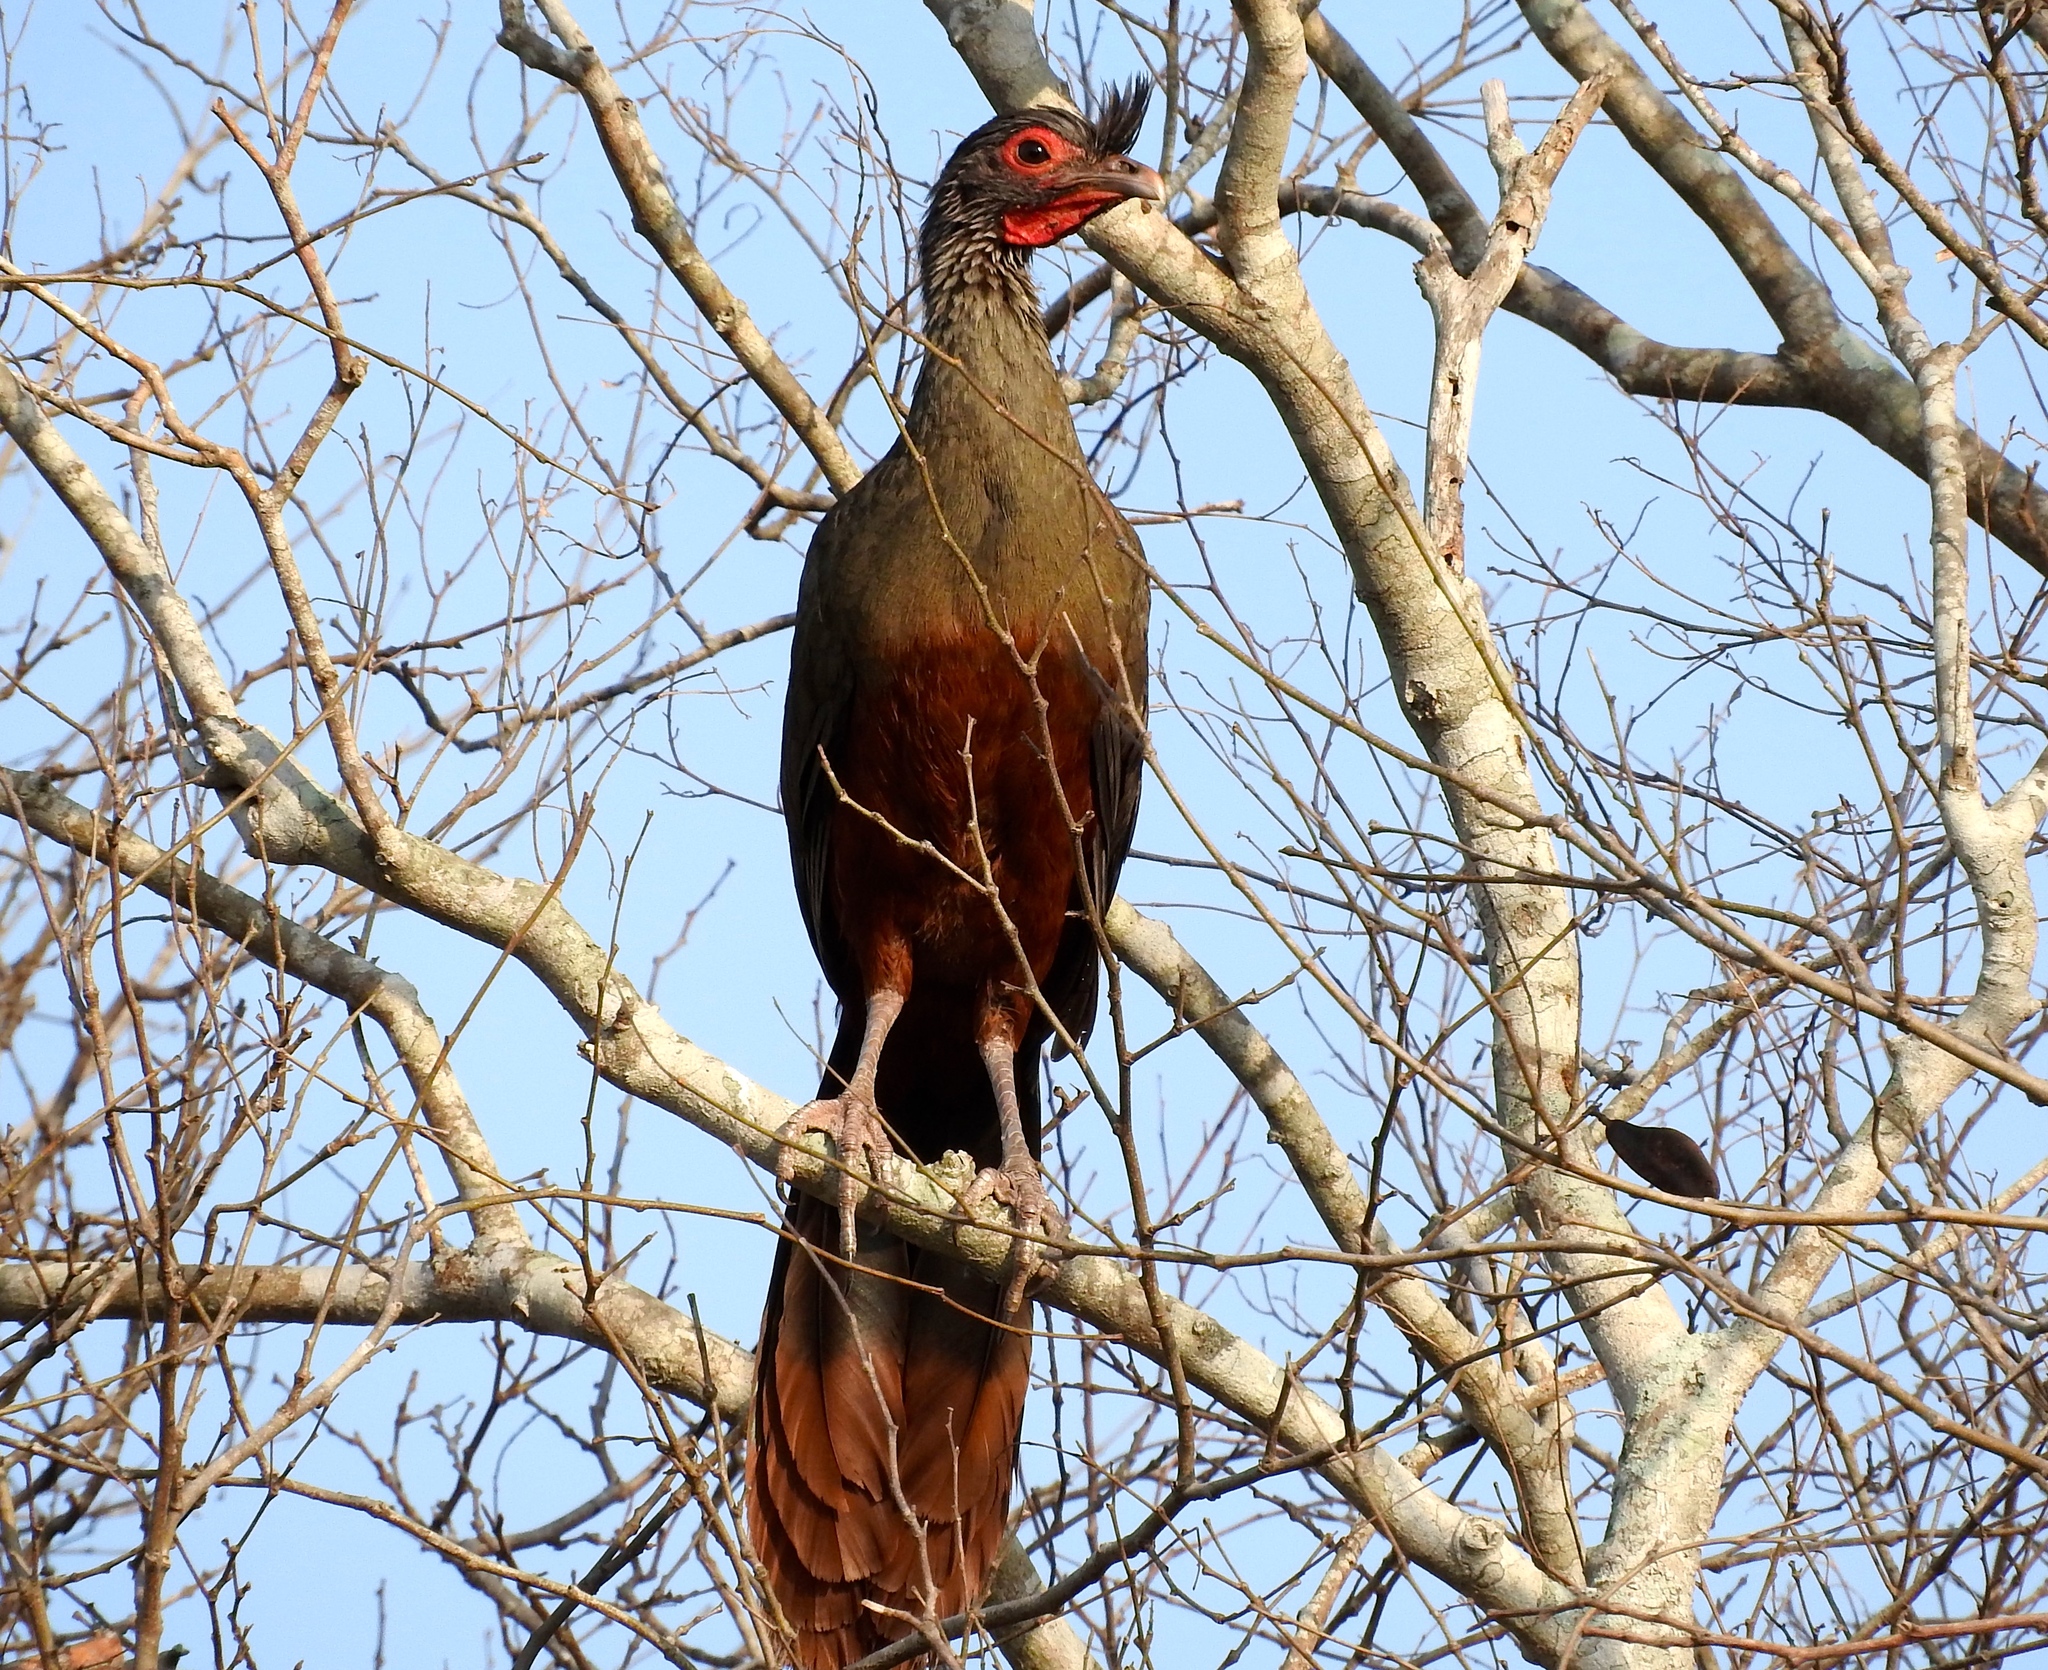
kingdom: Animalia
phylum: Chordata
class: Aves
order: Galliformes
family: Cracidae
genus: Ortalis
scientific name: Ortalis wagleri
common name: Rufous-bellied chachalaca
